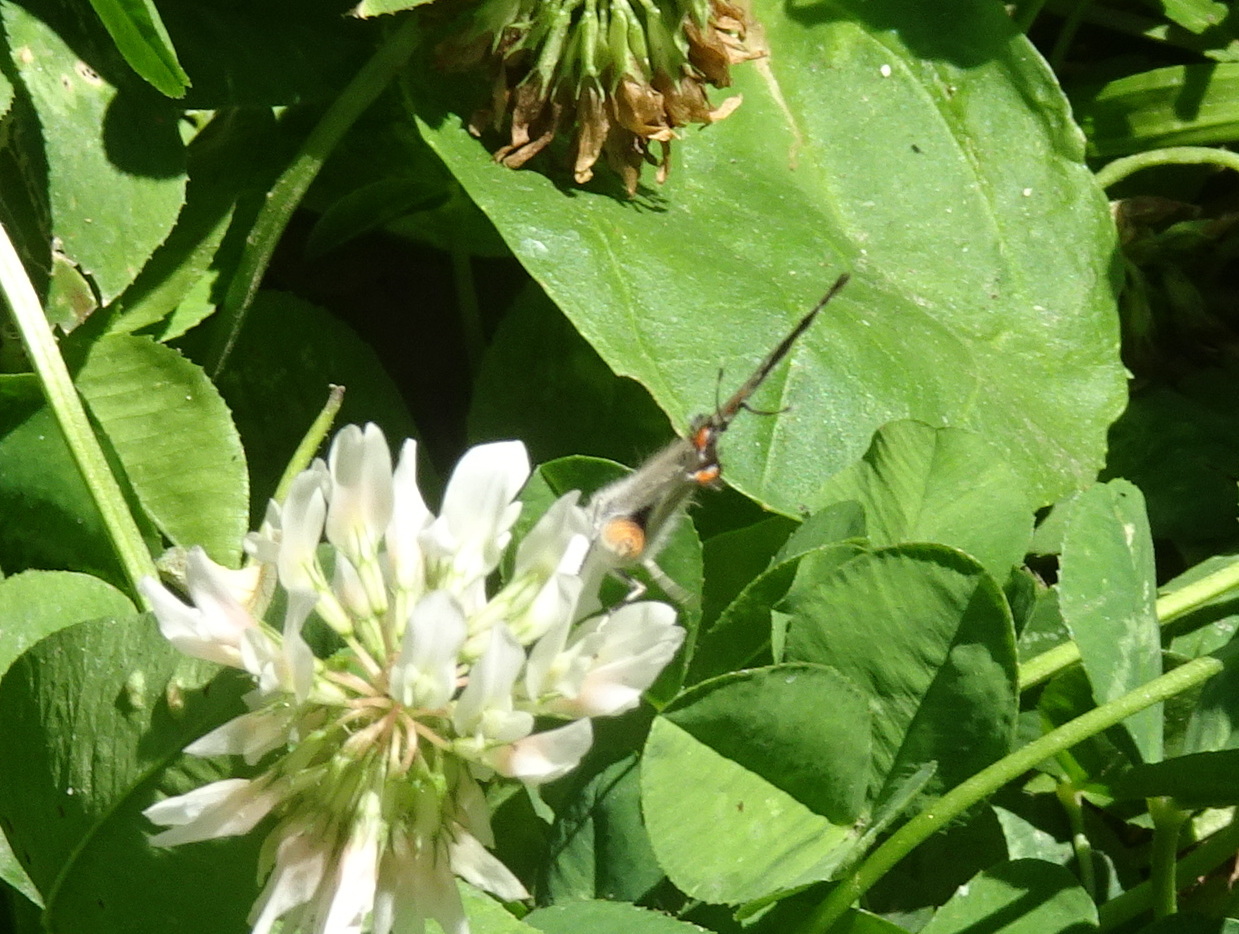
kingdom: Animalia
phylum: Arthropoda
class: Insecta
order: Lepidoptera
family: Lycaenidae
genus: Strymon
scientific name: Strymon melinus
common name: Gray hairstreak
